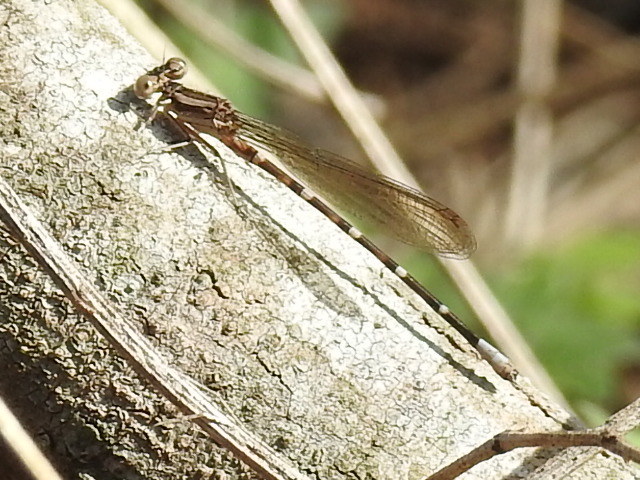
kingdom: Animalia
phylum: Arthropoda
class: Insecta
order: Odonata
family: Coenagrionidae
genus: Argia
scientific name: Argia sedula
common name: Blue-ringed dancer
